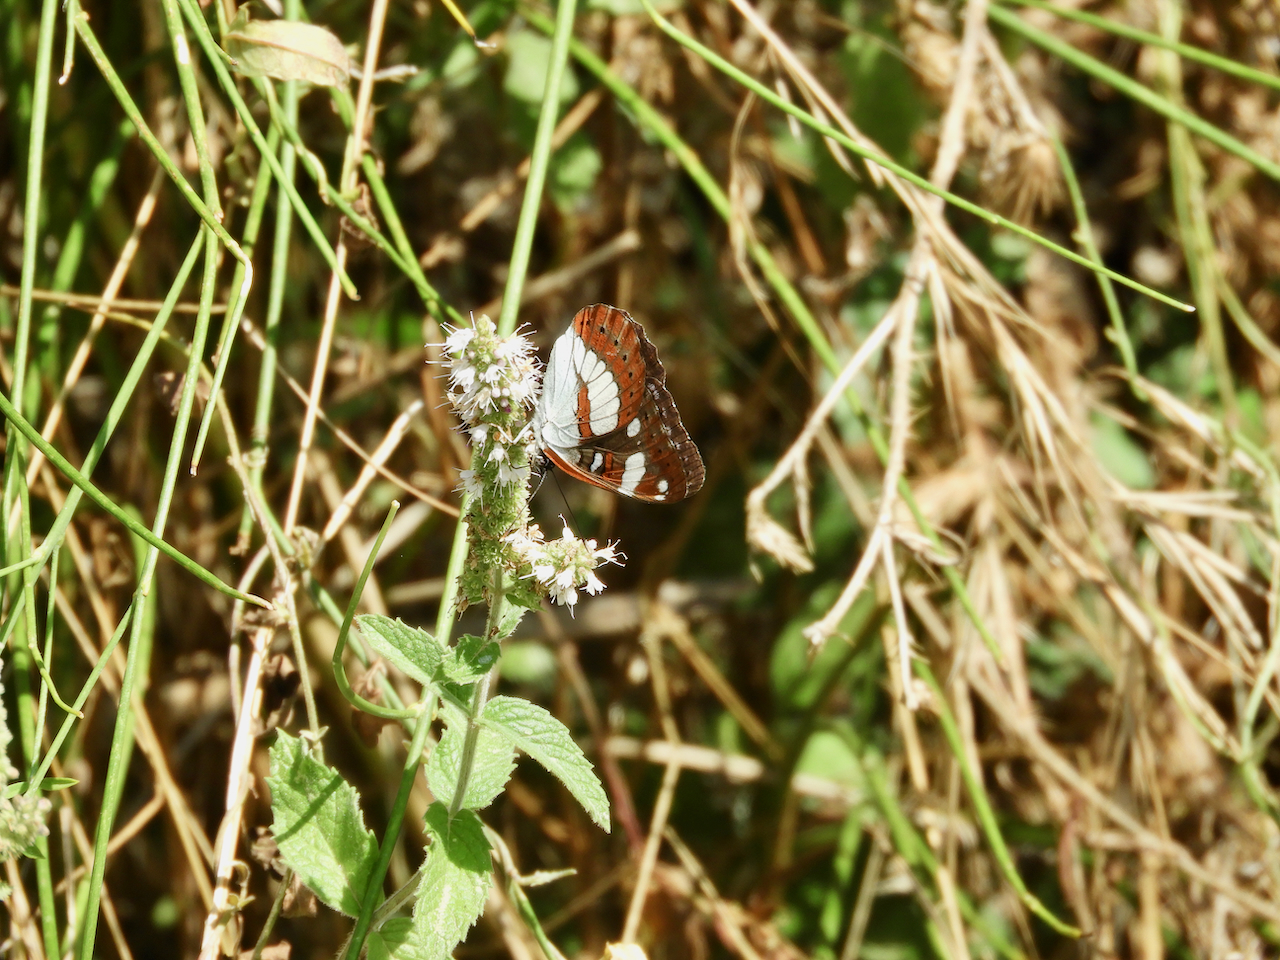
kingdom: Animalia
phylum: Arthropoda
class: Insecta
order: Lepidoptera
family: Nymphalidae
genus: Limenitis
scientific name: Limenitis reducta
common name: Southern white admiral
